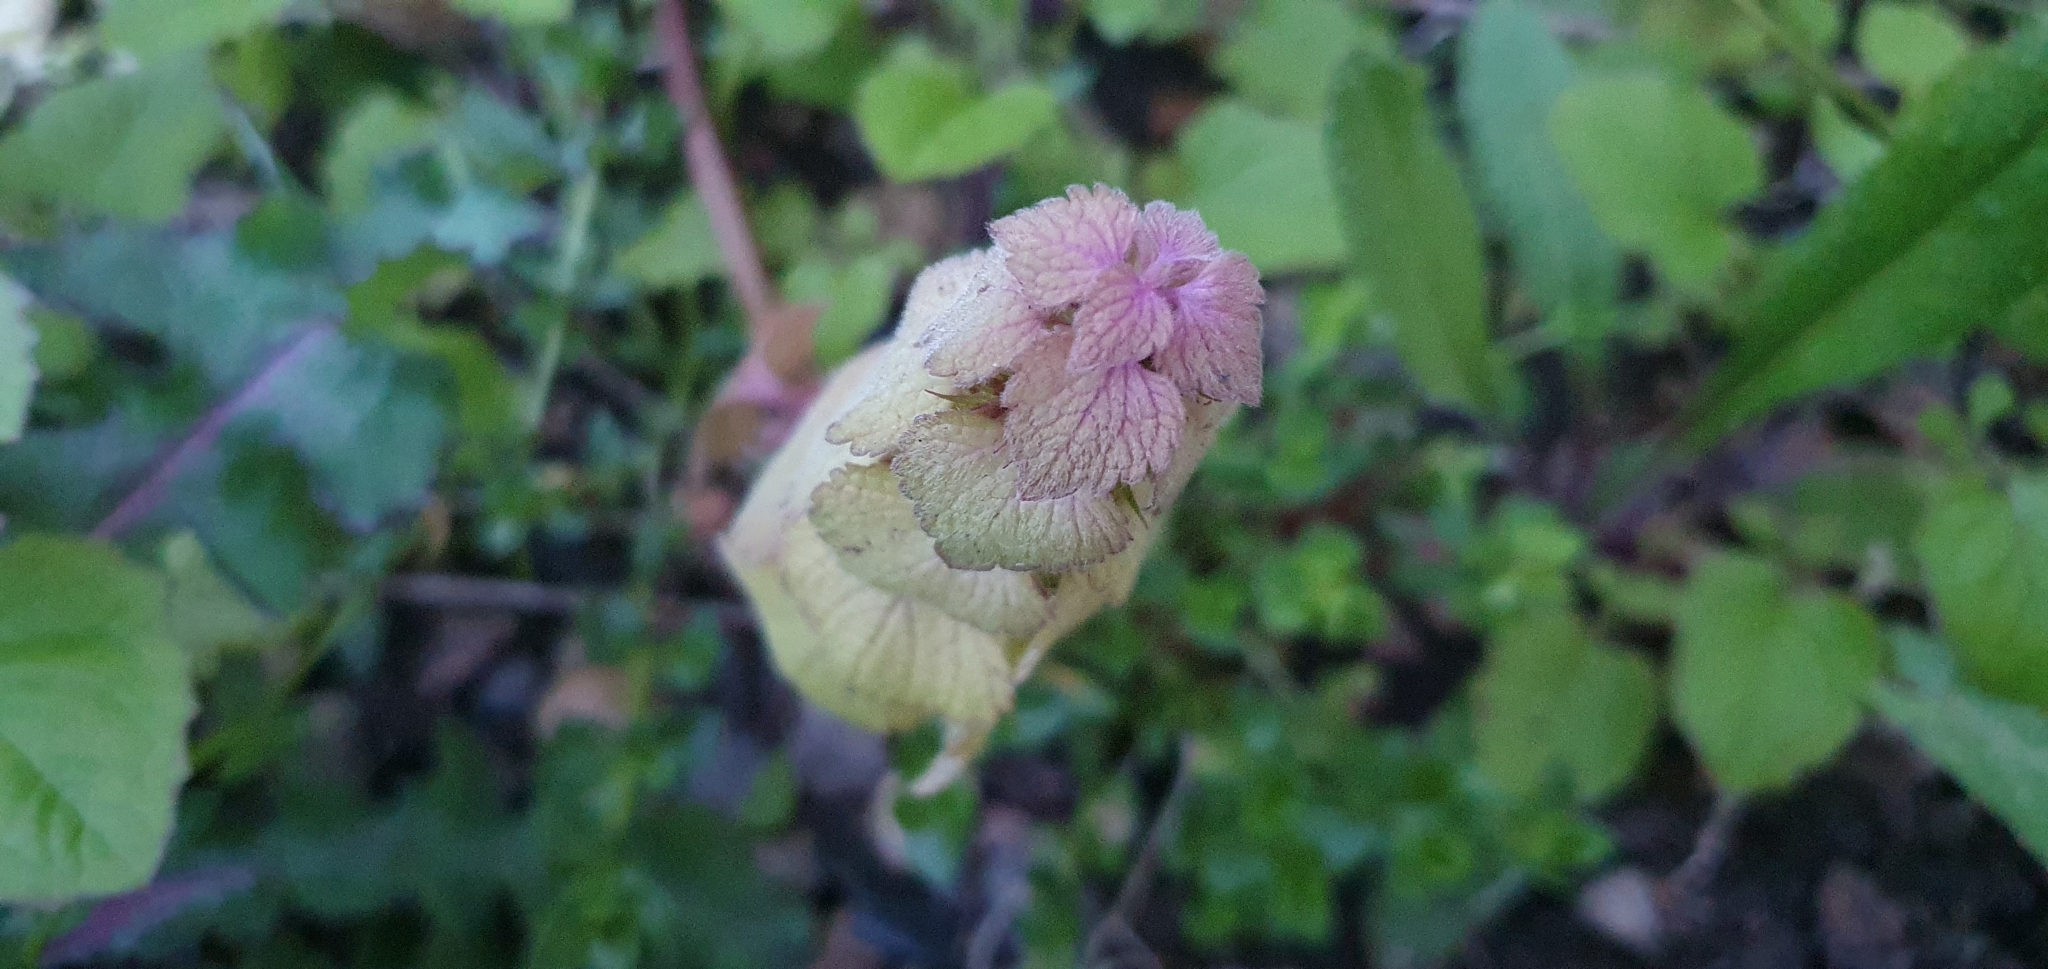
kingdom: Plantae
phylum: Tracheophyta
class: Magnoliopsida
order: Lamiales
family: Lamiaceae
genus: Lamium
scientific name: Lamium purpureum
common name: Red dead-nettle
